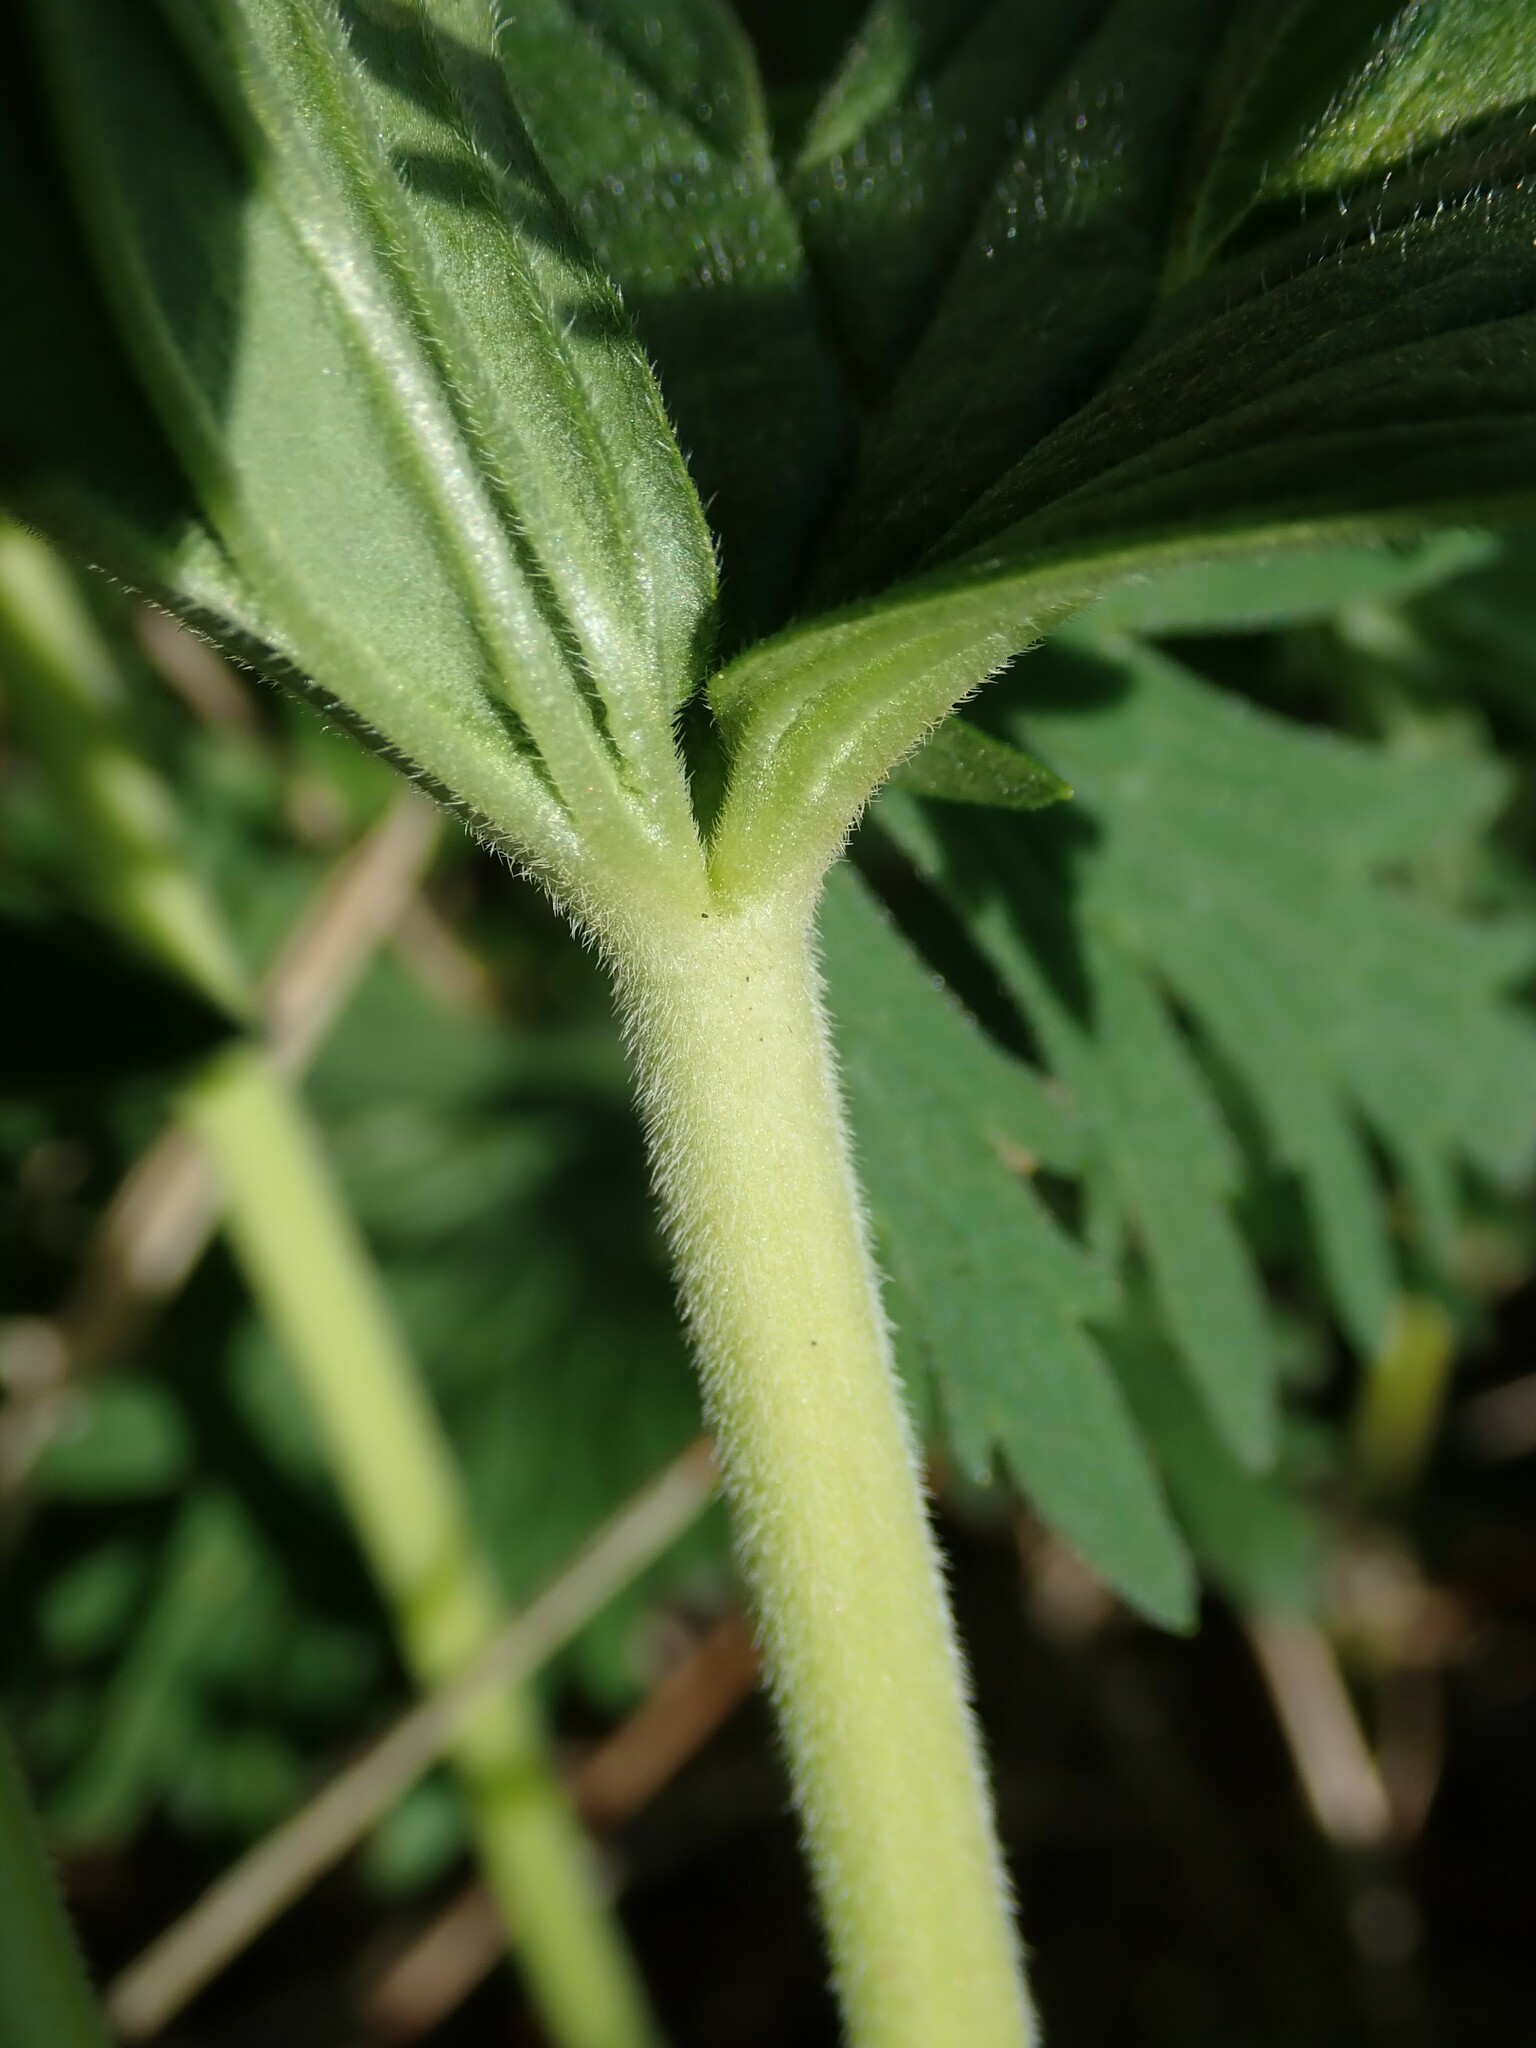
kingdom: Plantae
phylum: Tracheophyta
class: Magnoliopsida
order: Geraniales
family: Geraniaceae
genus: Geranium
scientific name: Geranium pratense
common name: Meadow crane's-bill
